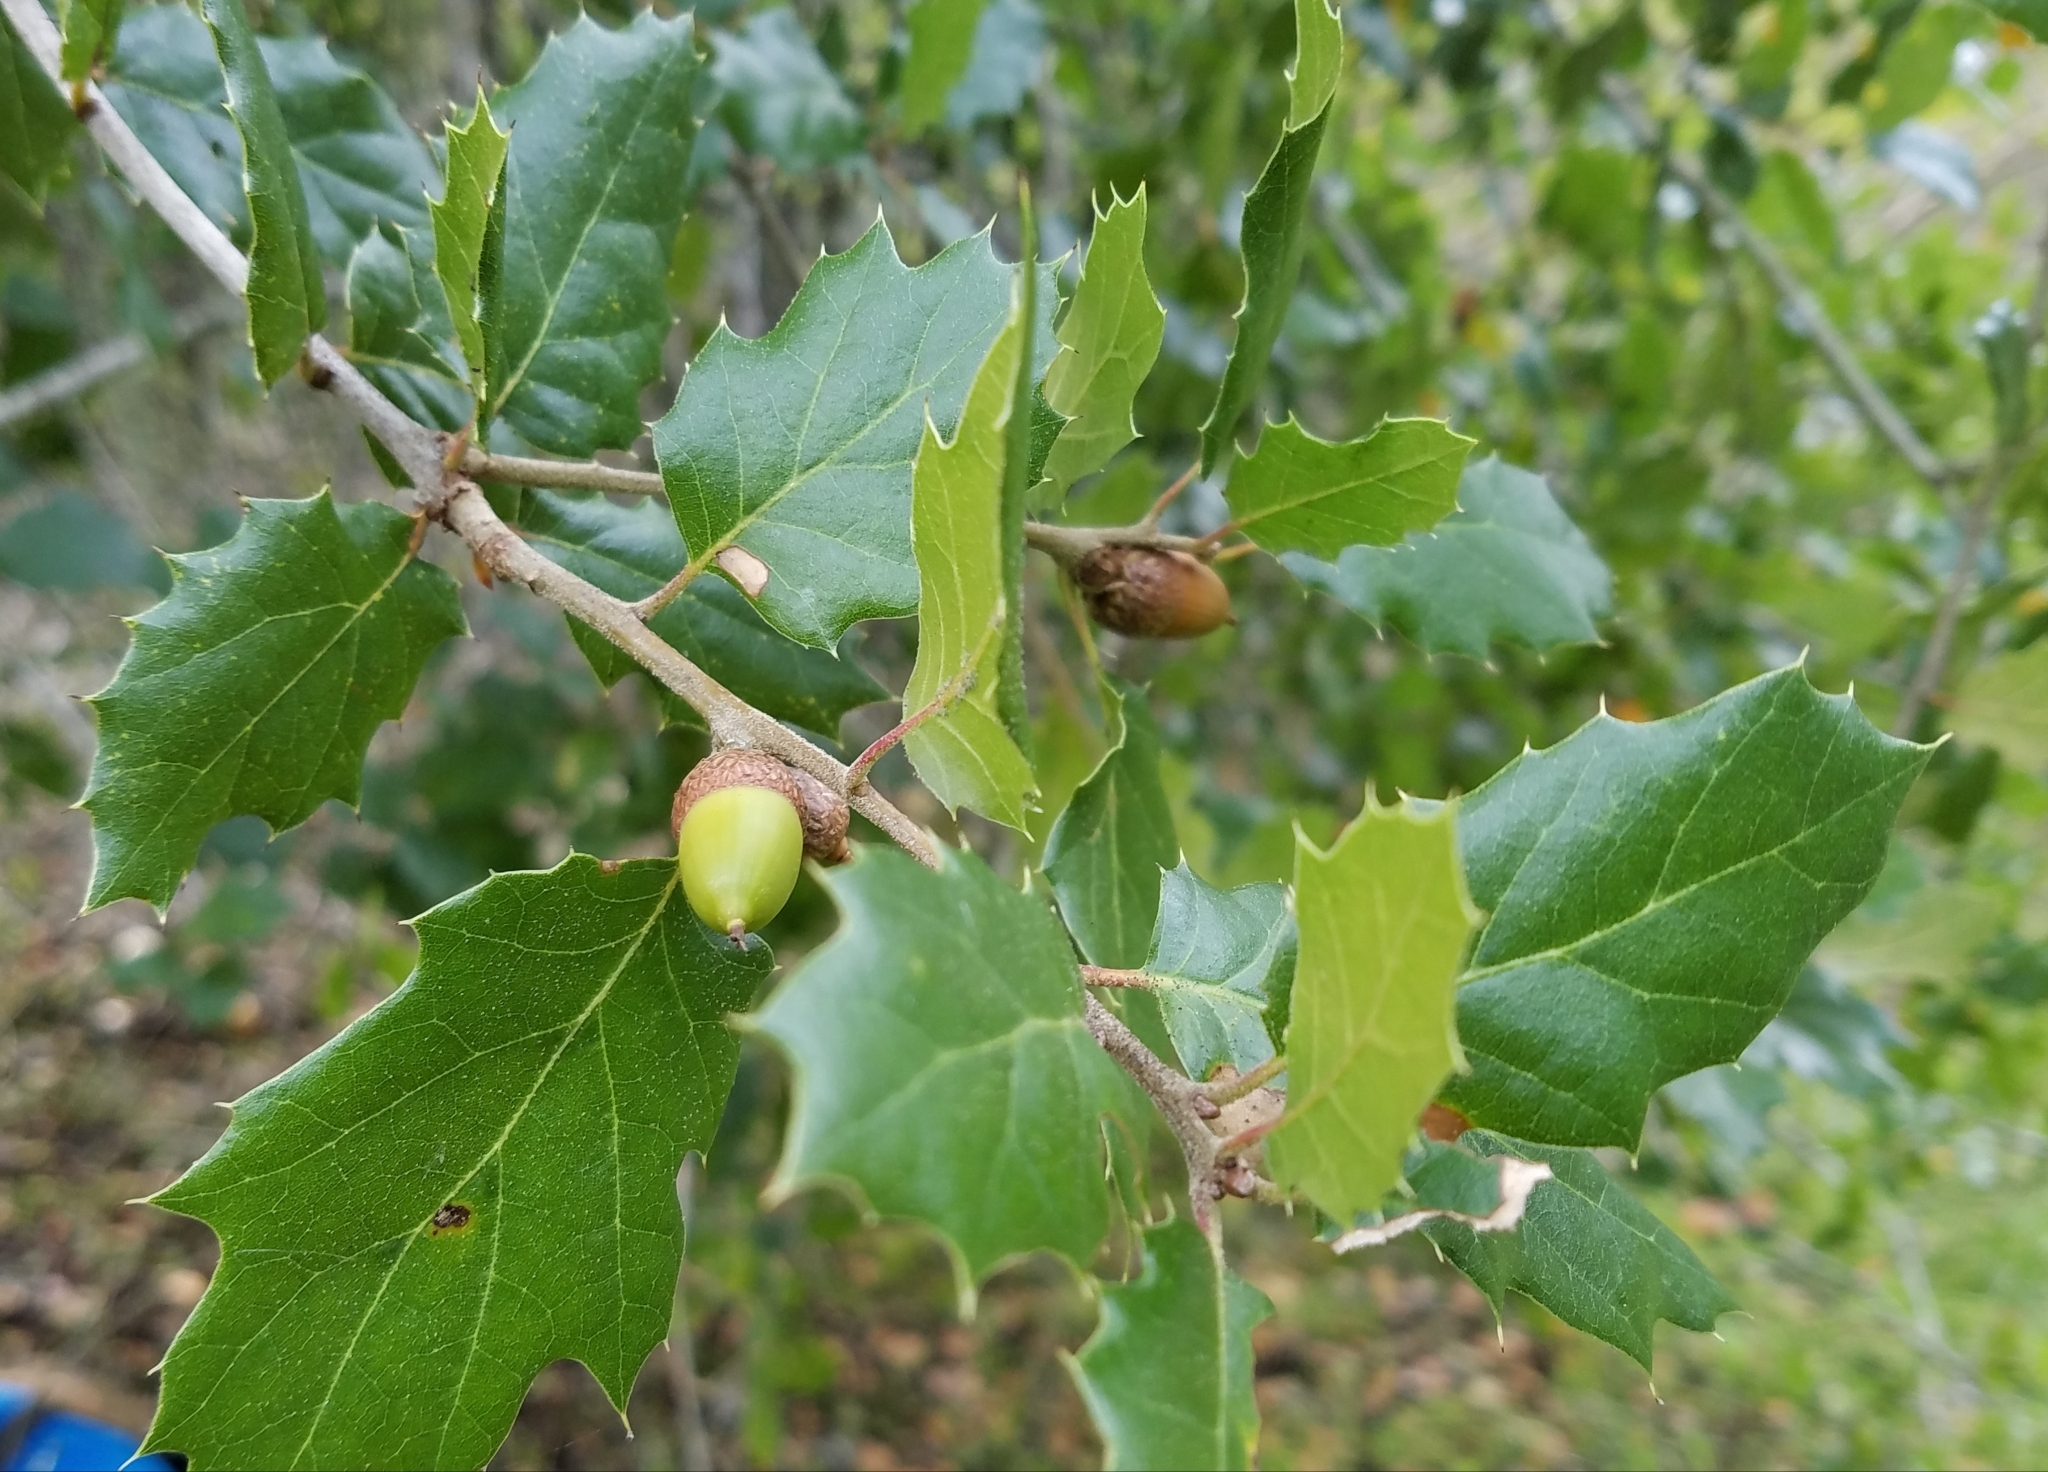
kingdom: Plantae
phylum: Tracheophyta
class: Magnoliopsida
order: Fagales
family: Fagaceae
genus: Quercus
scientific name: Quercus agrifolia
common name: California live oak
